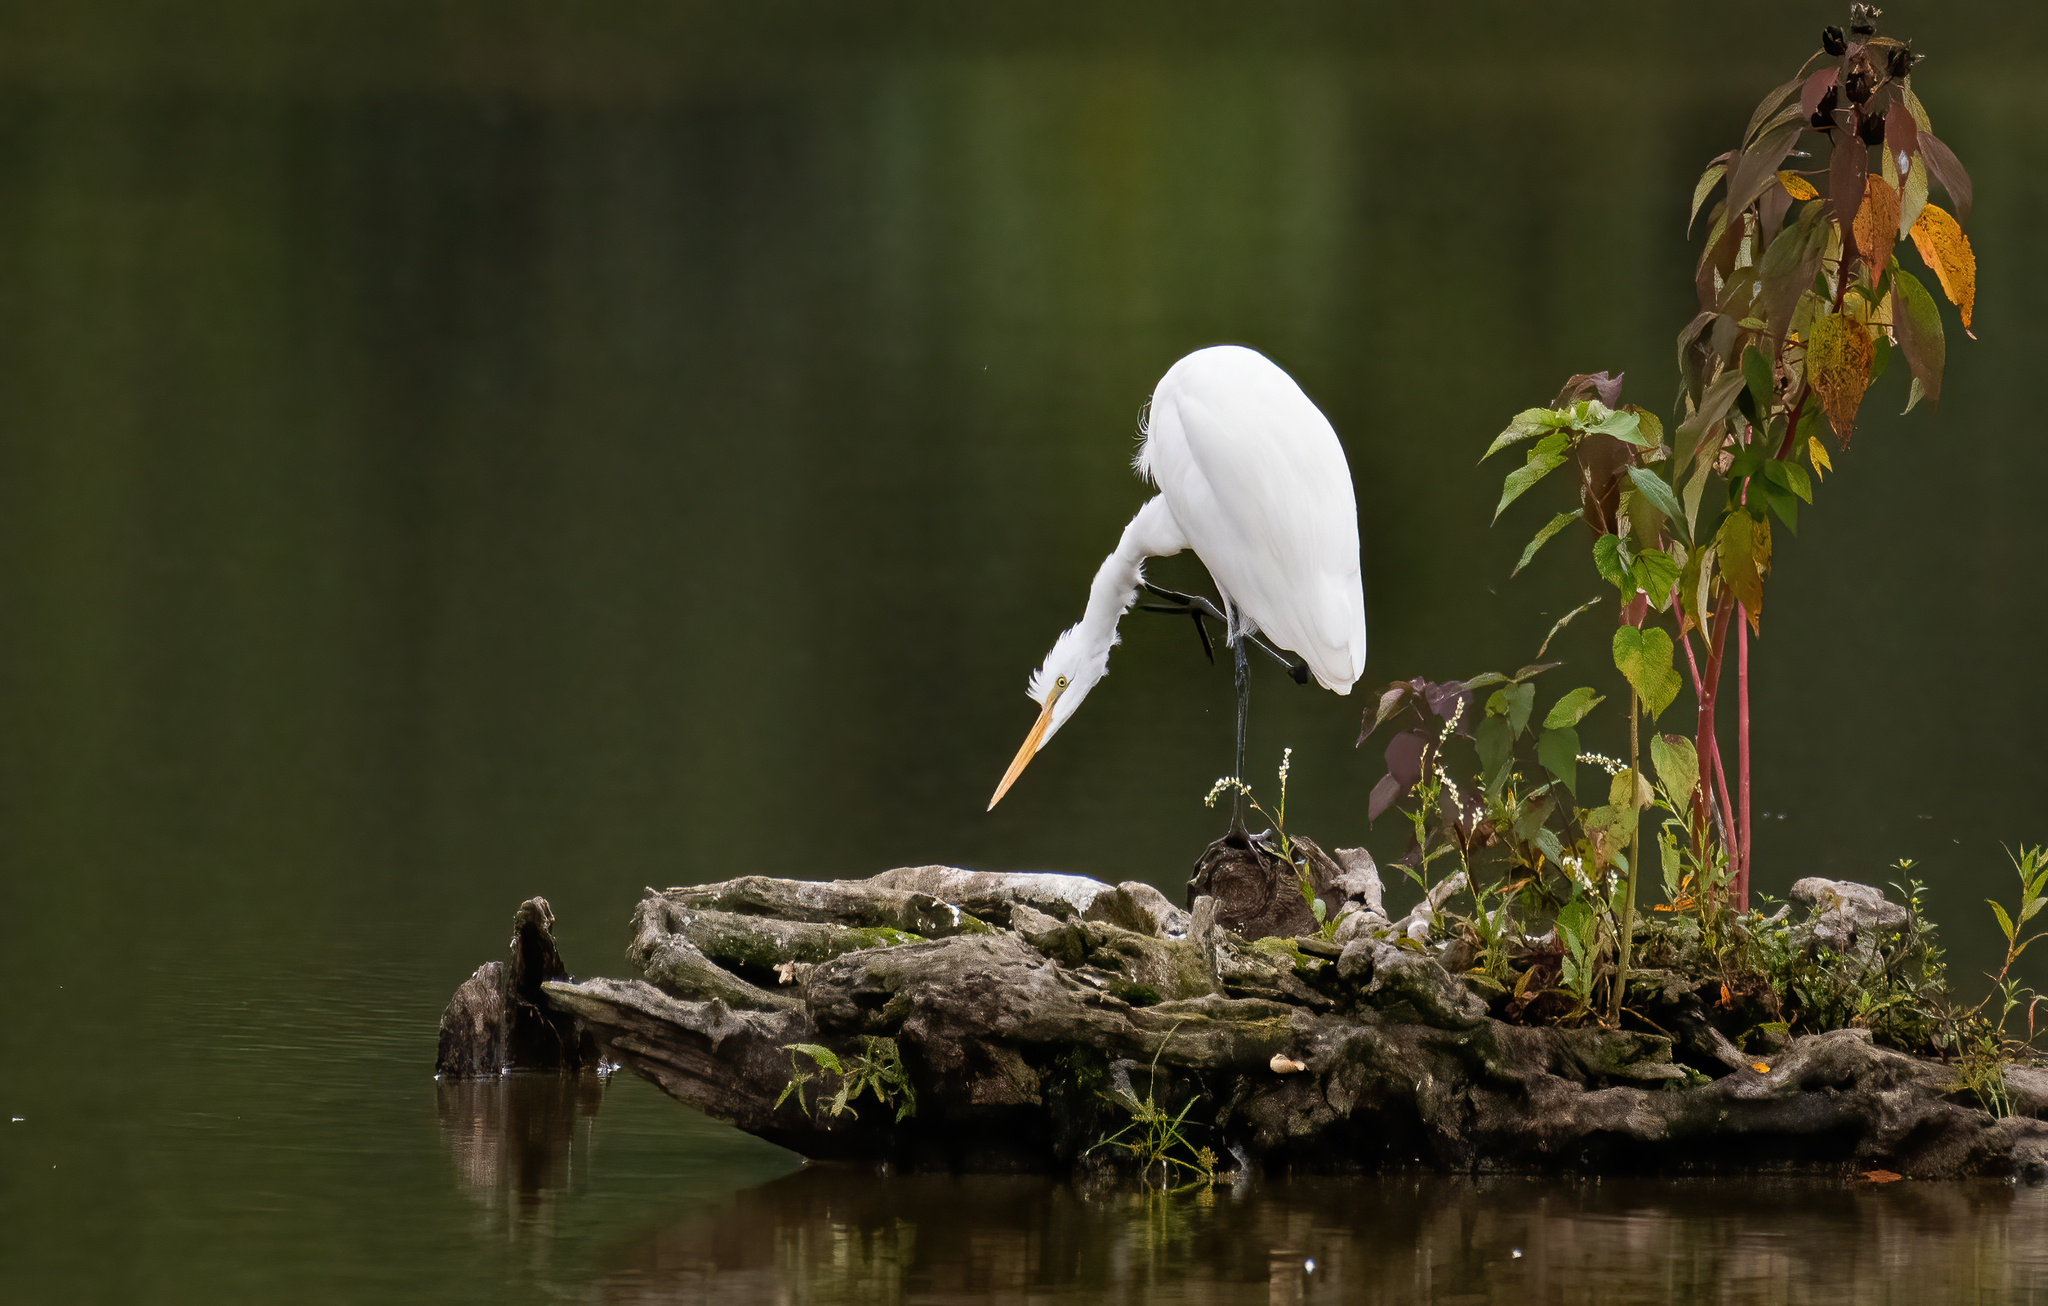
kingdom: Animalia
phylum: Chordata
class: Aves
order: Pelecaniformes
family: Ardeidae
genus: Ardea
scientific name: Ardea alba
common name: Great egret
